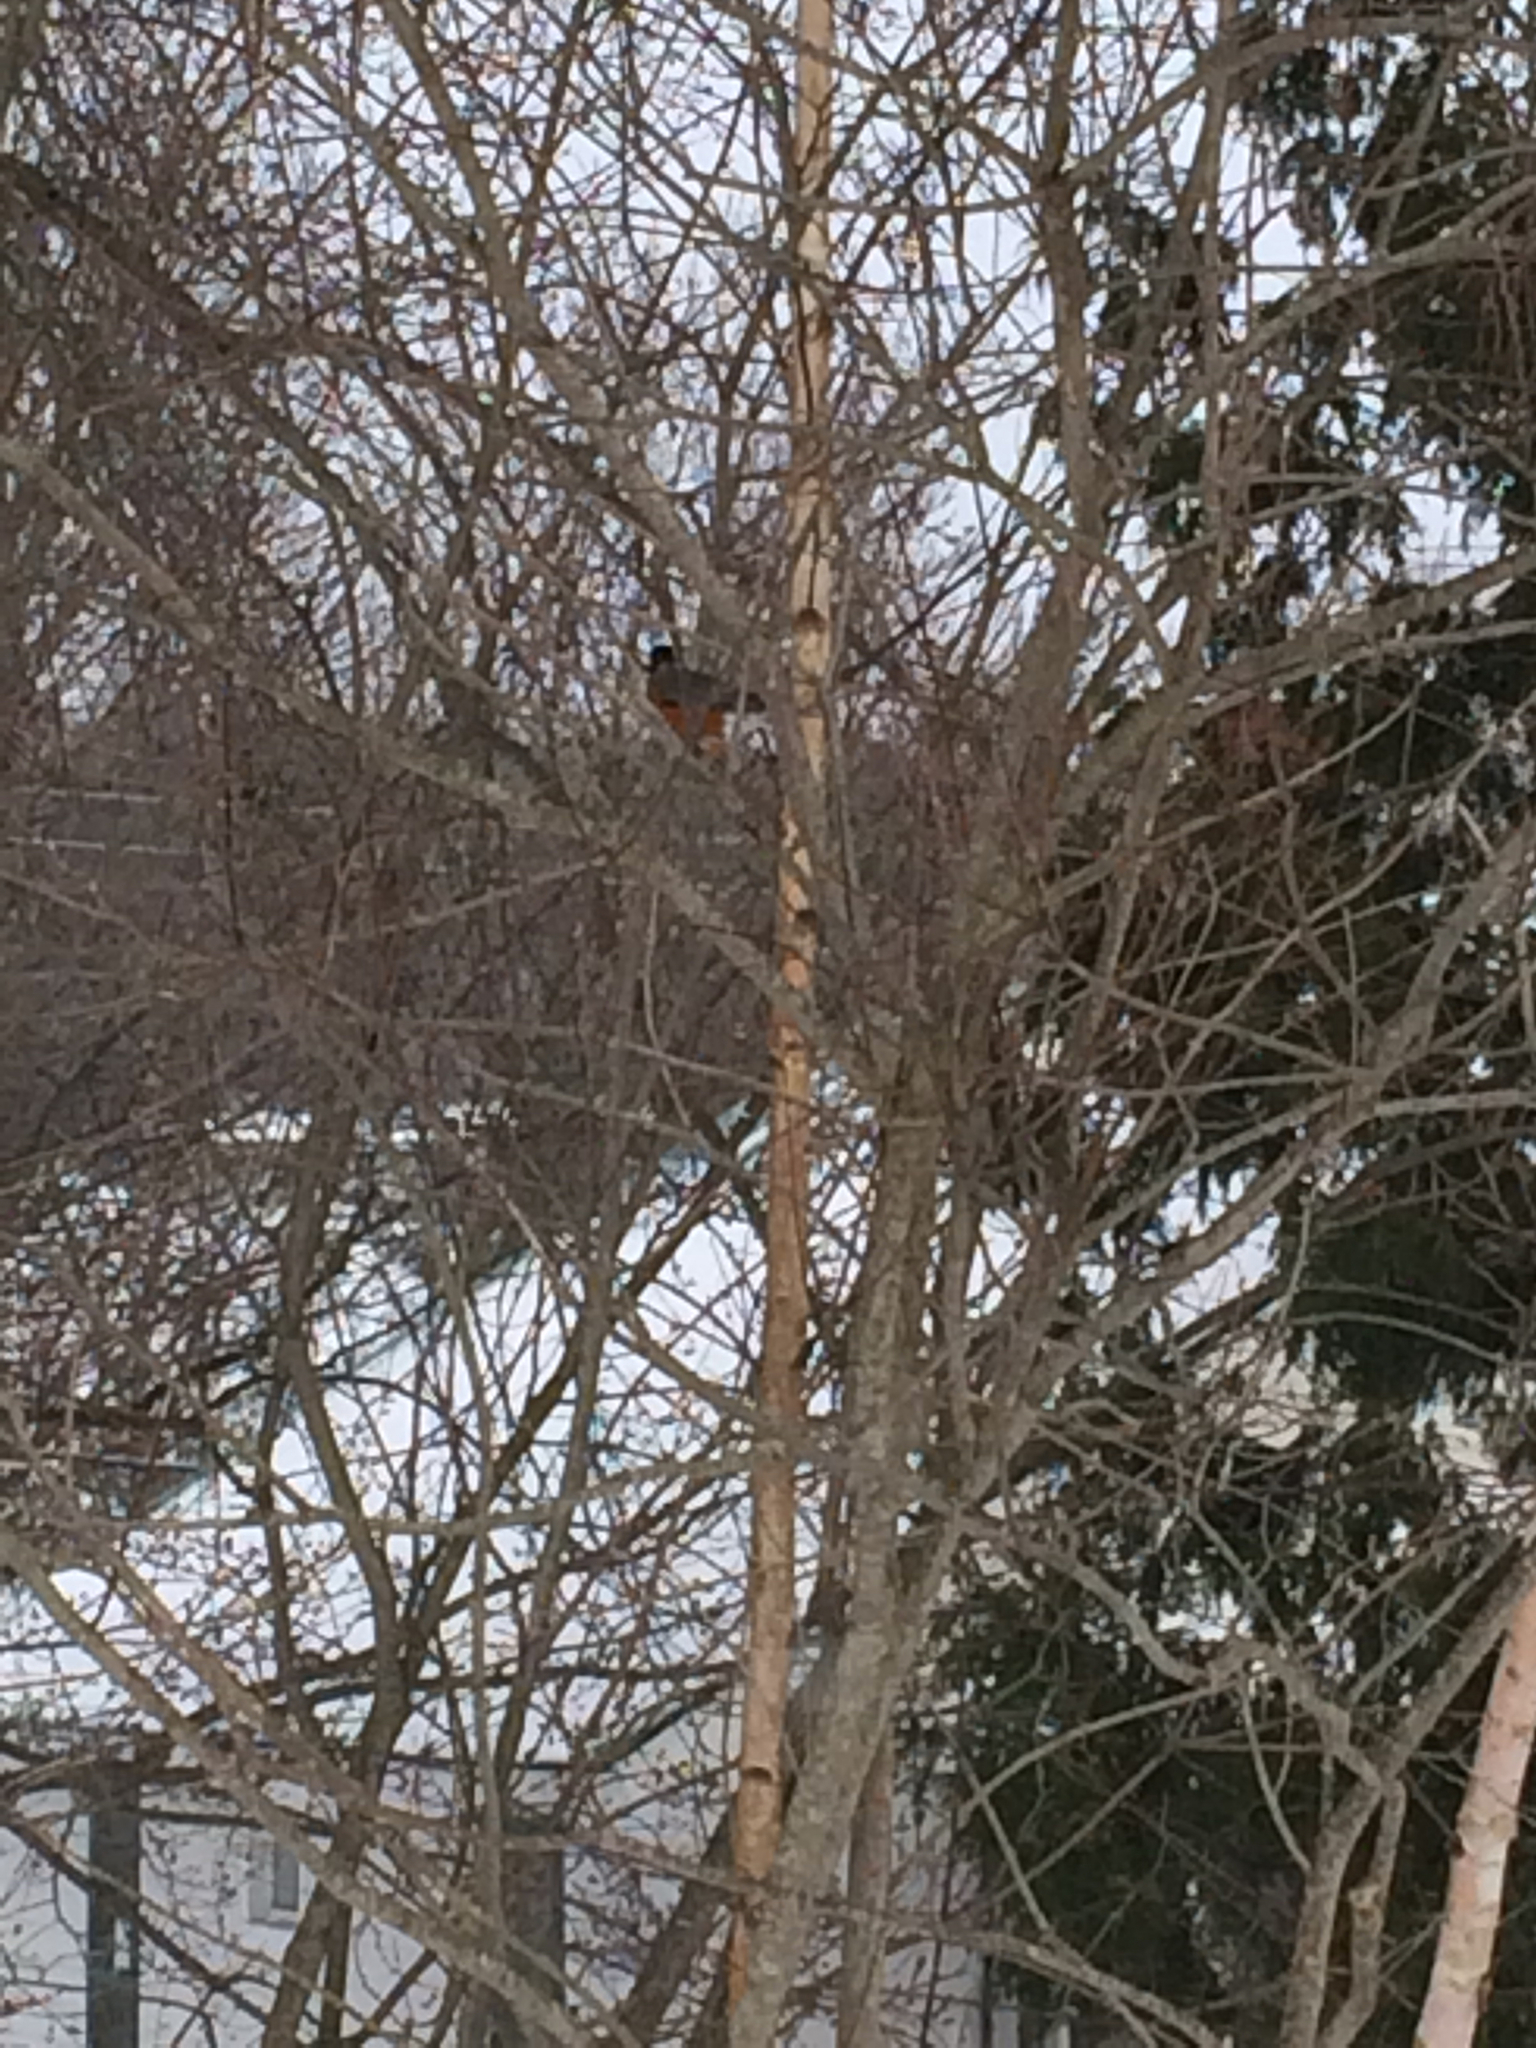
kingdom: Animalia
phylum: Chordata
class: Aves
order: Passeriformes
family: Turdidae
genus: Turdus
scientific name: Turdus migratorius
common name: American robin
